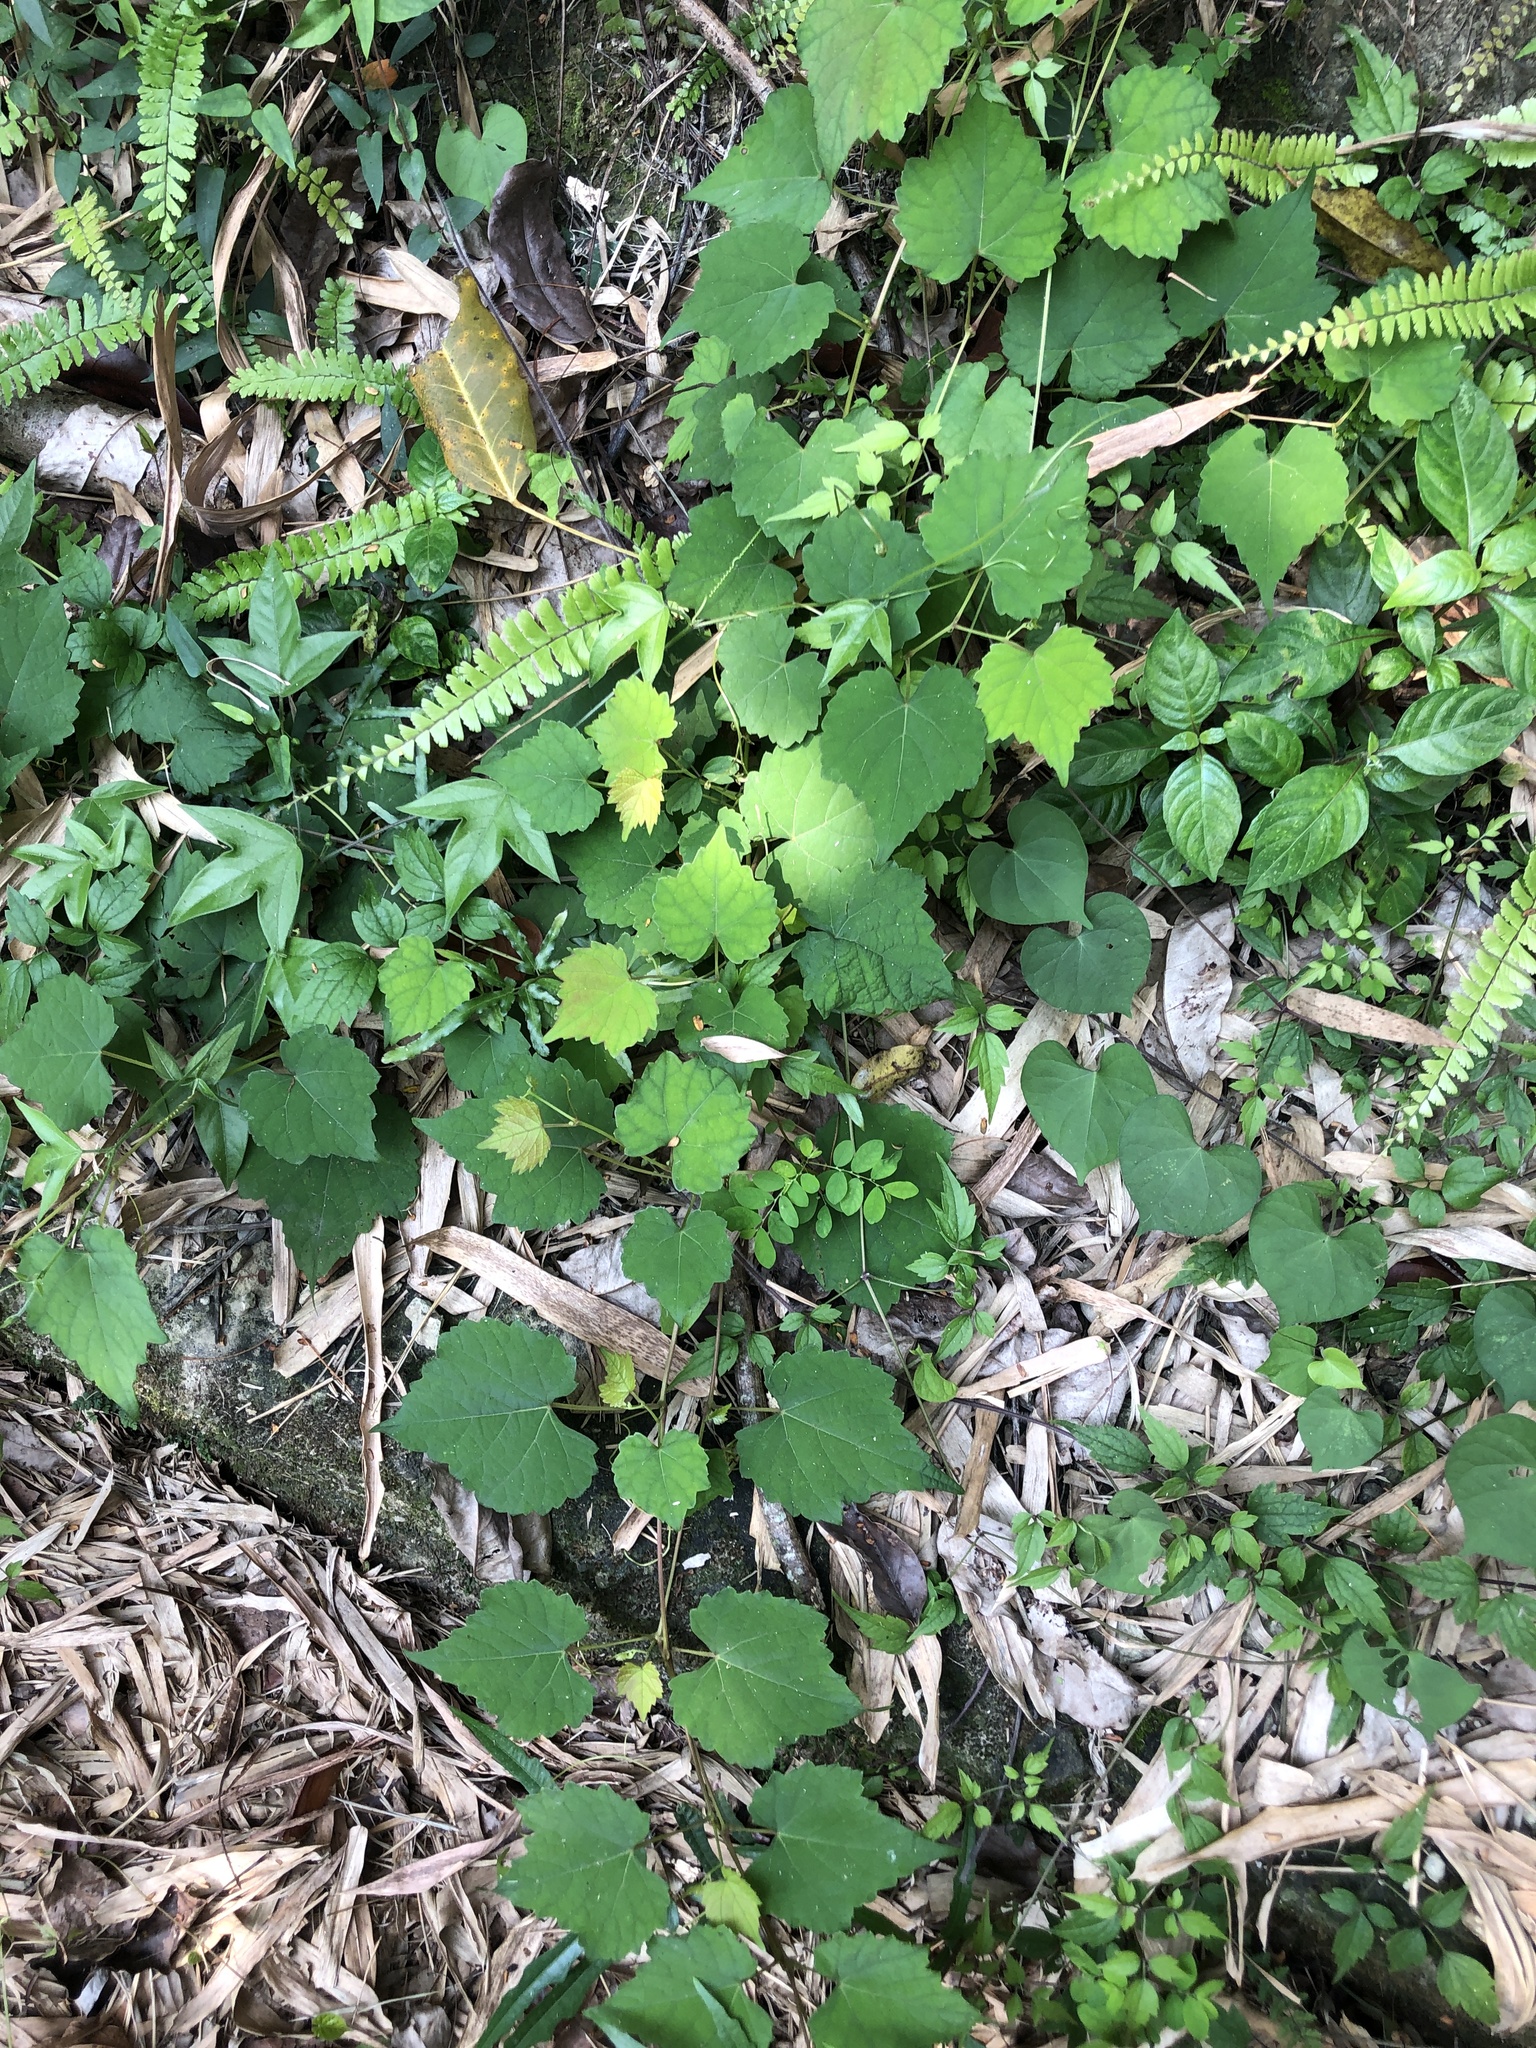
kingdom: Plantae
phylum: Tracheophyta
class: Magnoliopsida
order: Vitales
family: Vitaceae
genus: Ampelopsis
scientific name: Ampelopsis glandulosa
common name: Amur peppervine
